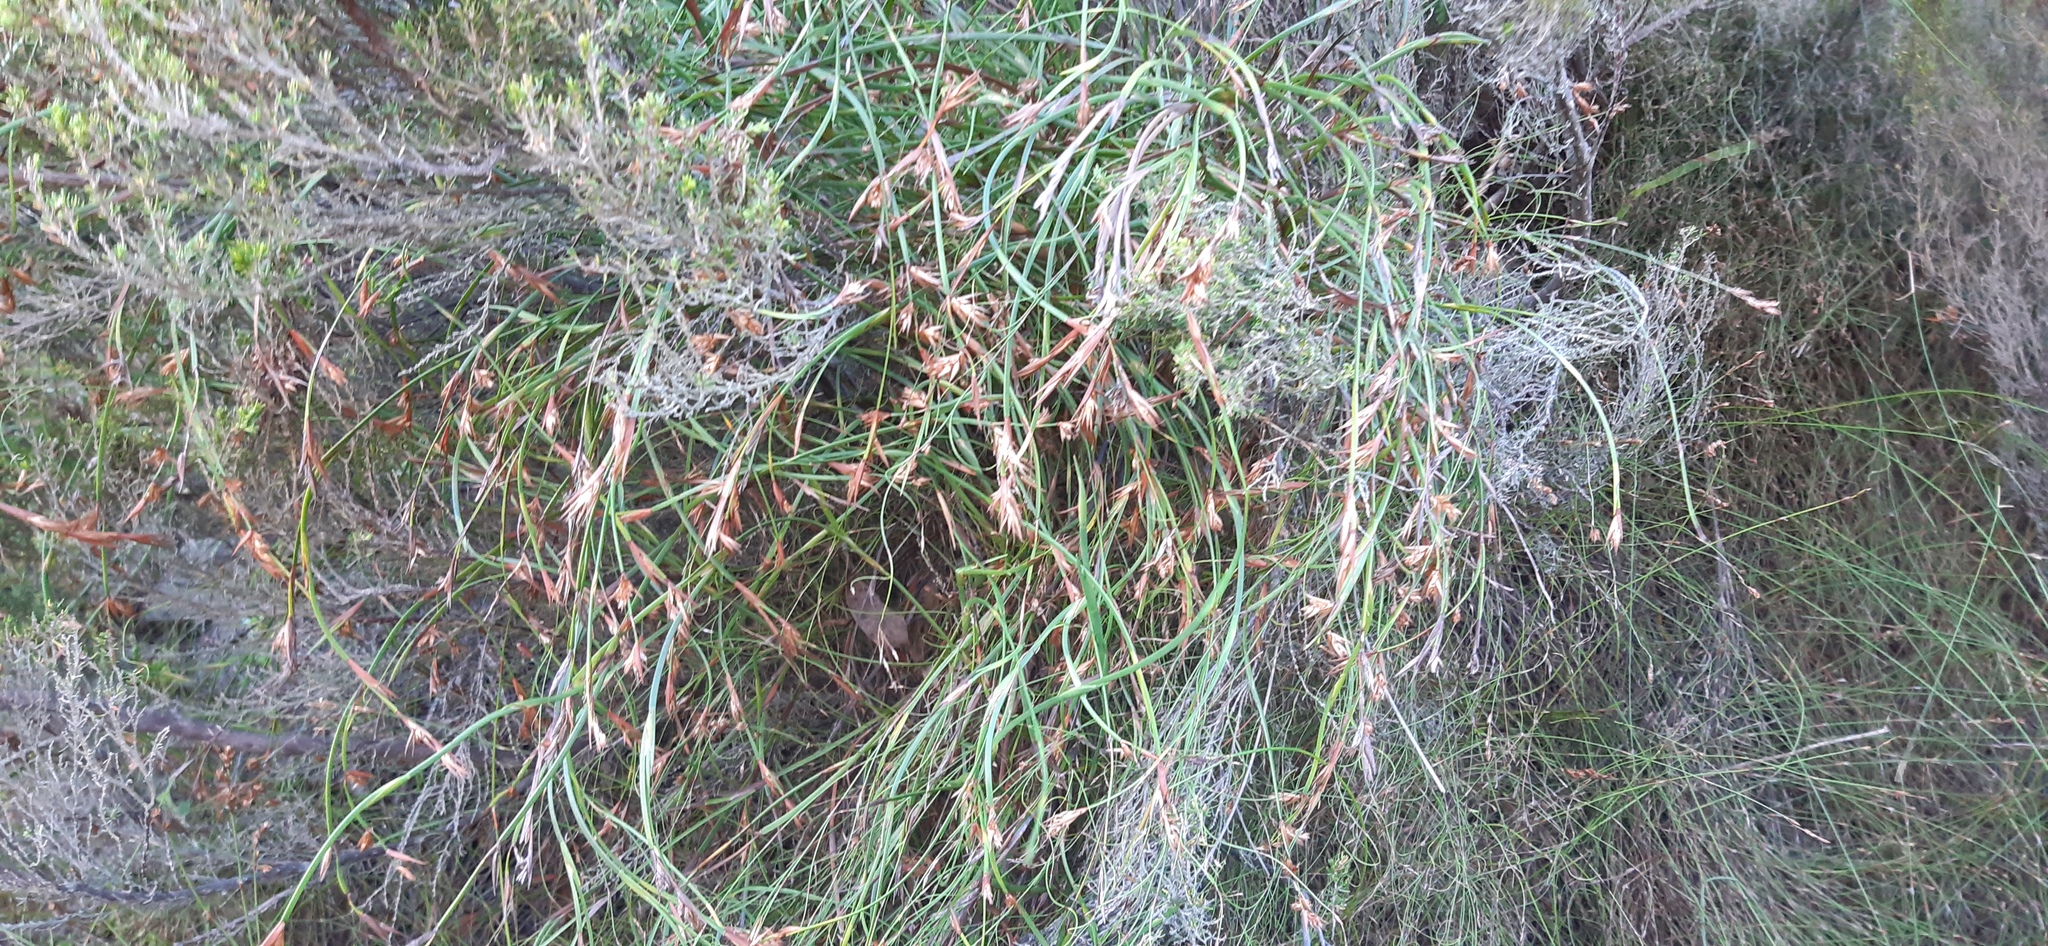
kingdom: Plantae
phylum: Tracheophyta
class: Liliopsida
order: Poales
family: Restionaceae
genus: Platycaulos
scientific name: Platycaulos cascadensis
